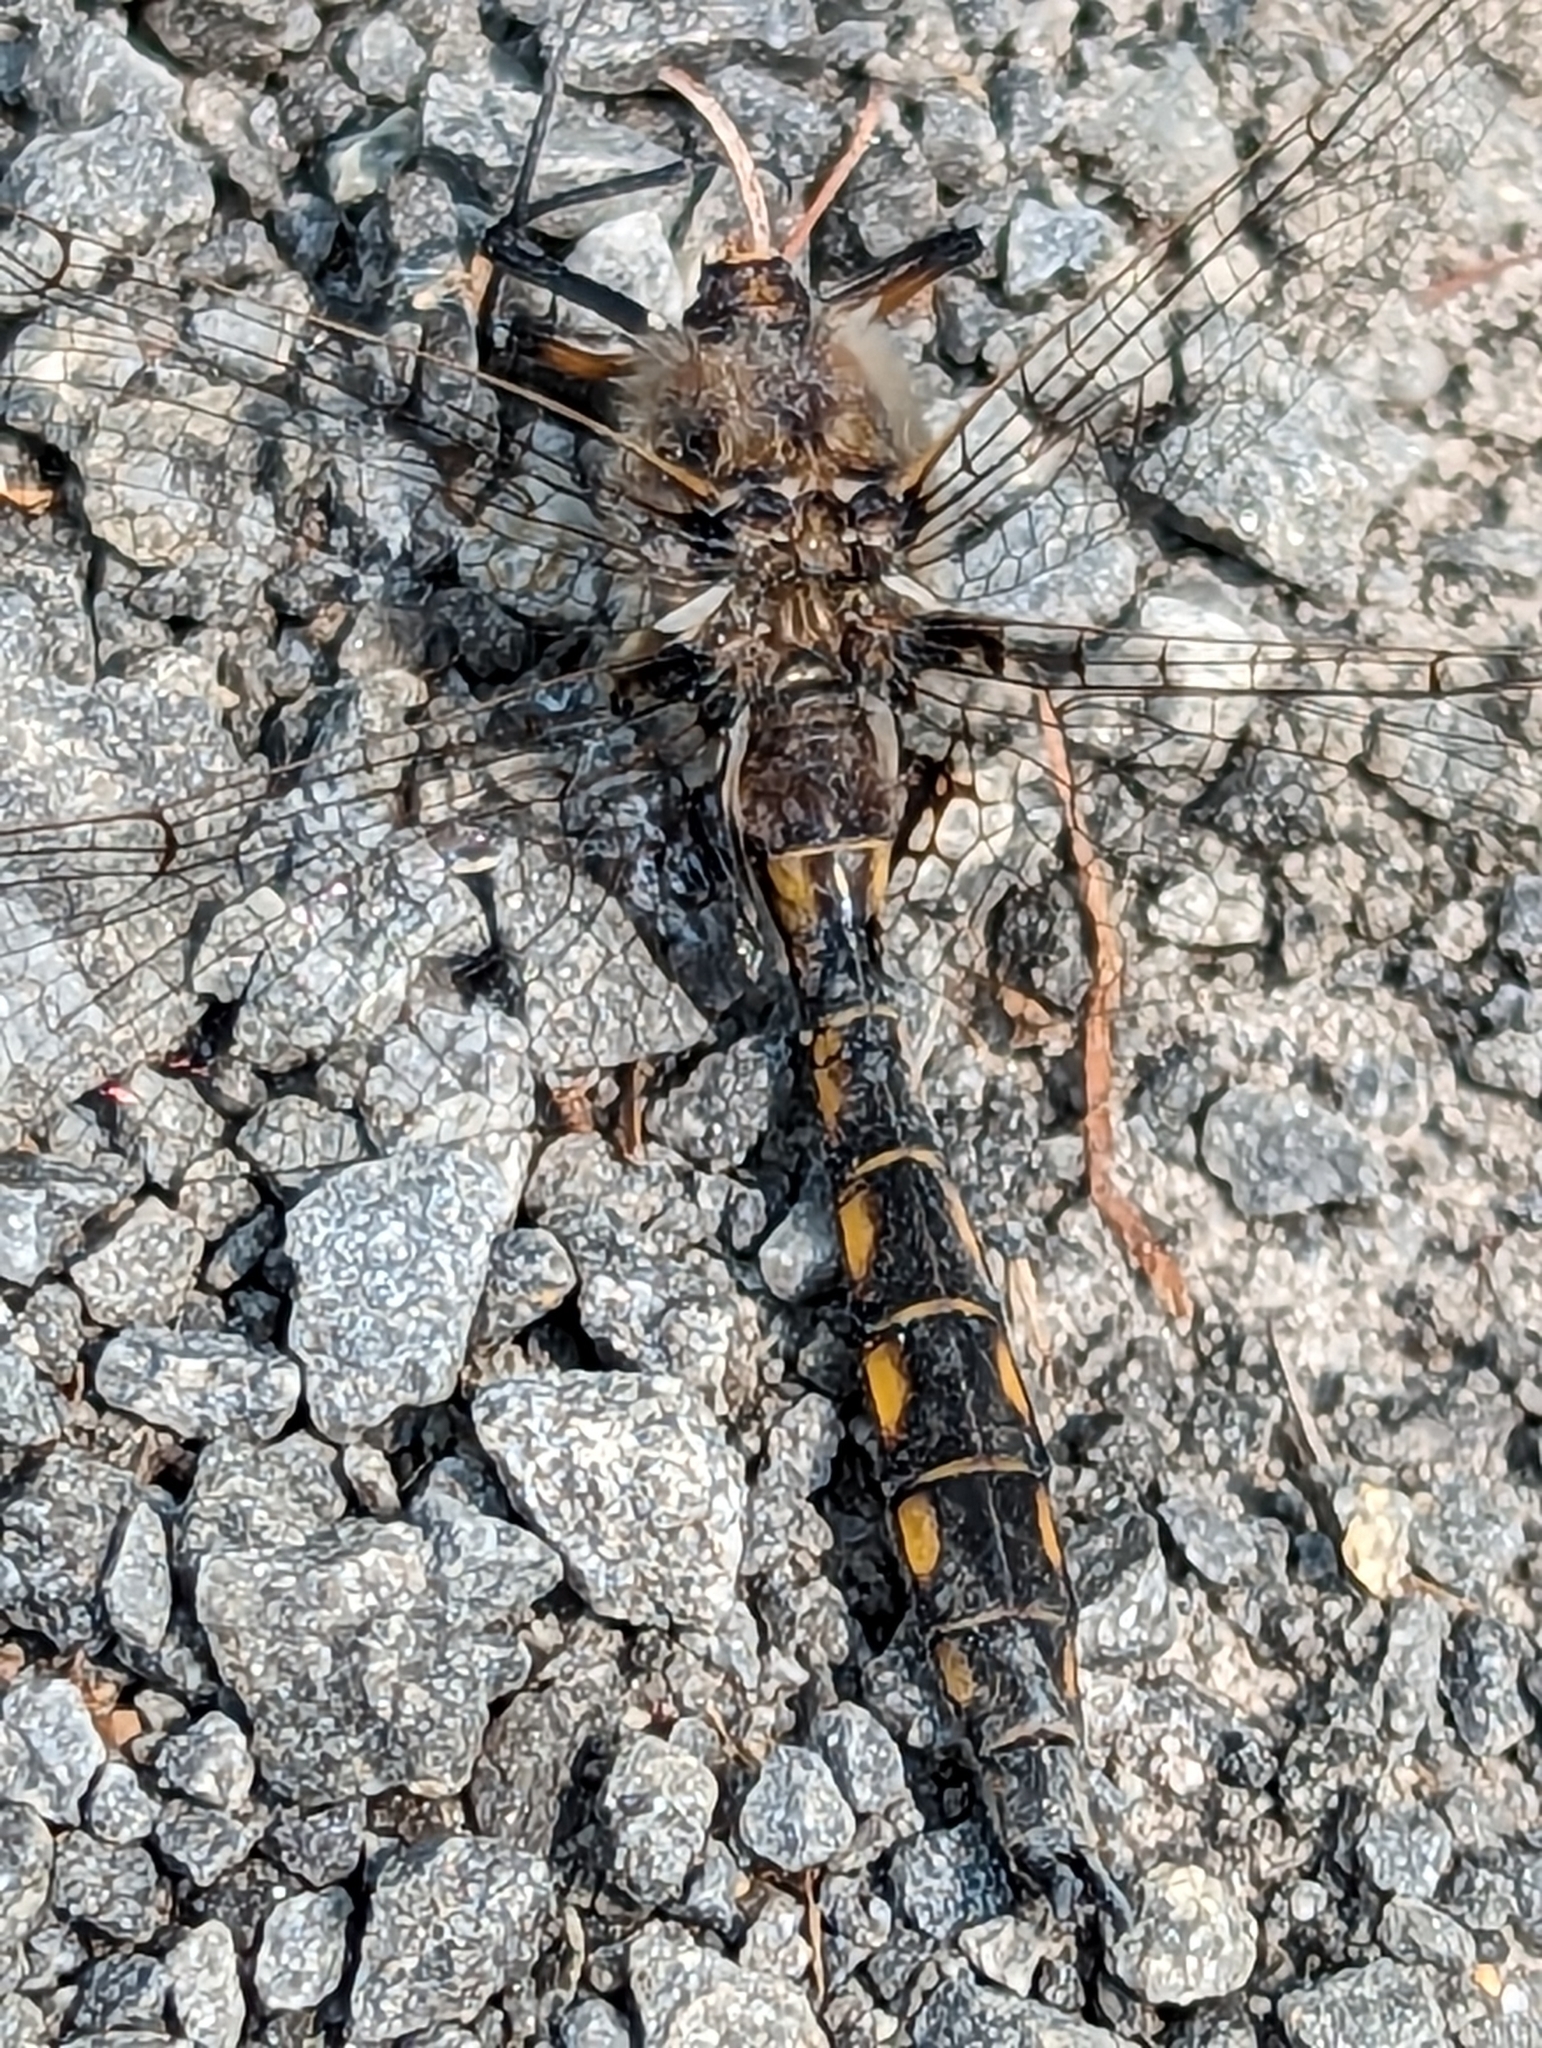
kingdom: Animalia
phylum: Arthropoda
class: Insecta
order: Odonata
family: Corduliidae
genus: Epitheca
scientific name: Epitheca canis
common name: Beaverpond baskettail
